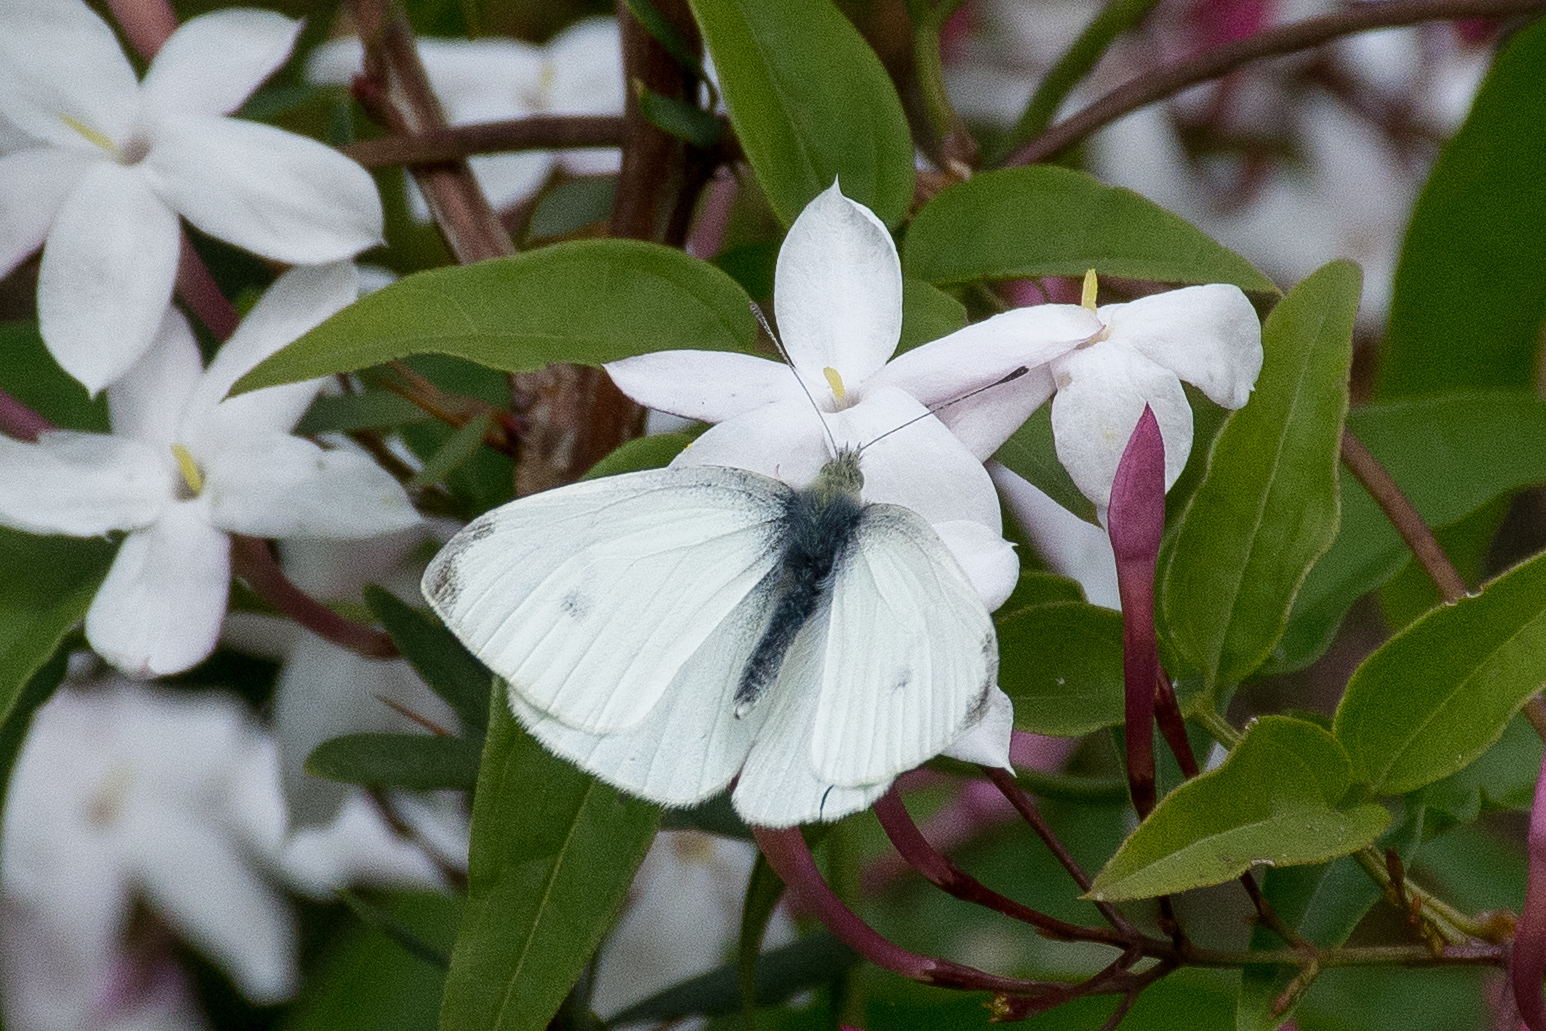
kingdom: Animalia
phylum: Arthropoda
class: Insecta
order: Lepidoptera
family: Pieridae
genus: Pieris
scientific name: Pieris rapae
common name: Small white
